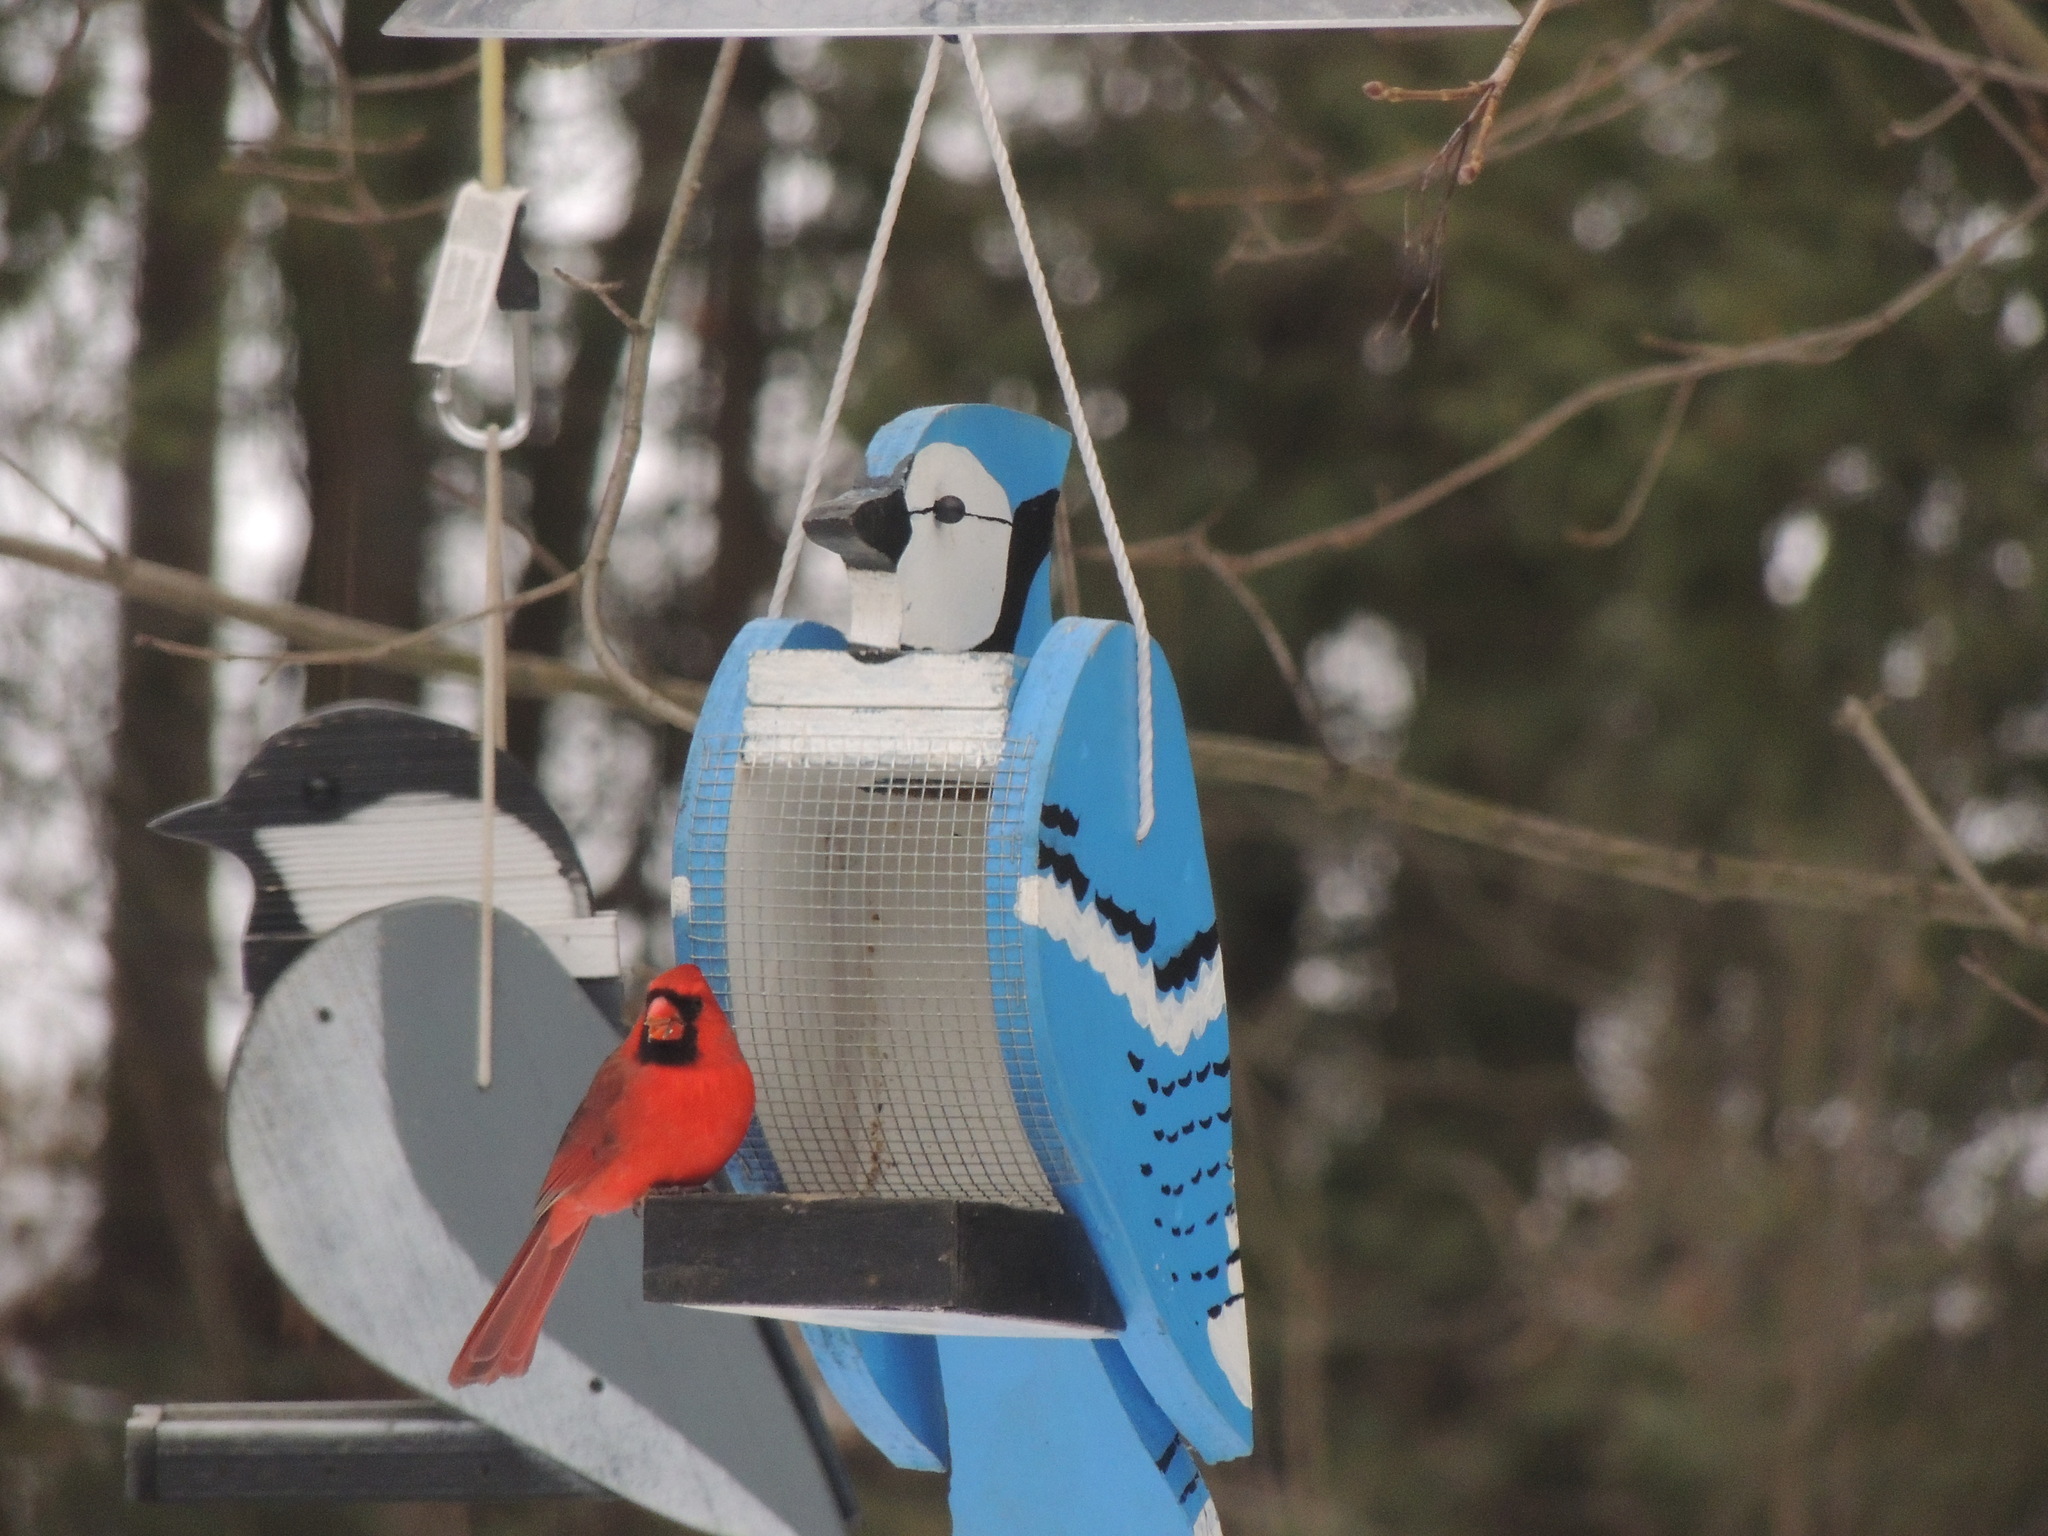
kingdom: Animalia
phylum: Chordata
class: Aves
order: Passeriformes
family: Cardinalidae
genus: Cardinalis
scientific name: Cardinalis cardinalis
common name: Northern cardinal
